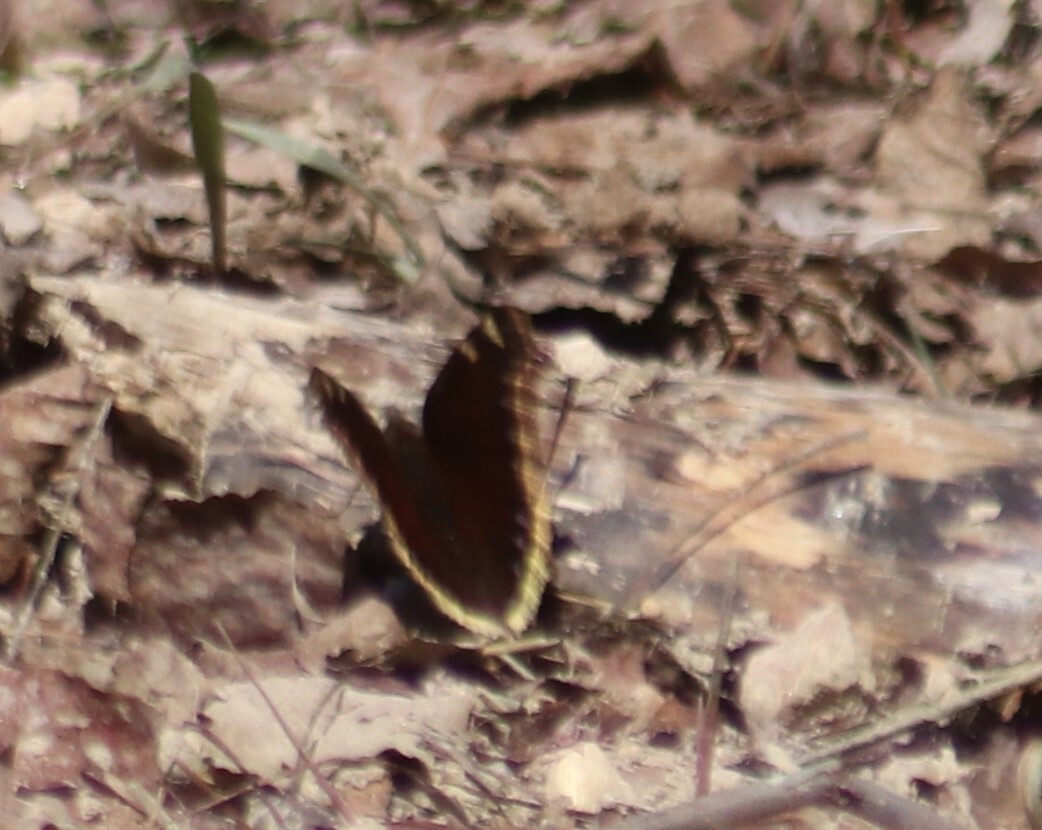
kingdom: Animalia
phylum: Arthropoda
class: Insecta
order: Lepidoptera
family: Nymphalidae
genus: Nymphalis
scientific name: Nymphalis antiopa
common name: Camberwell beauty
